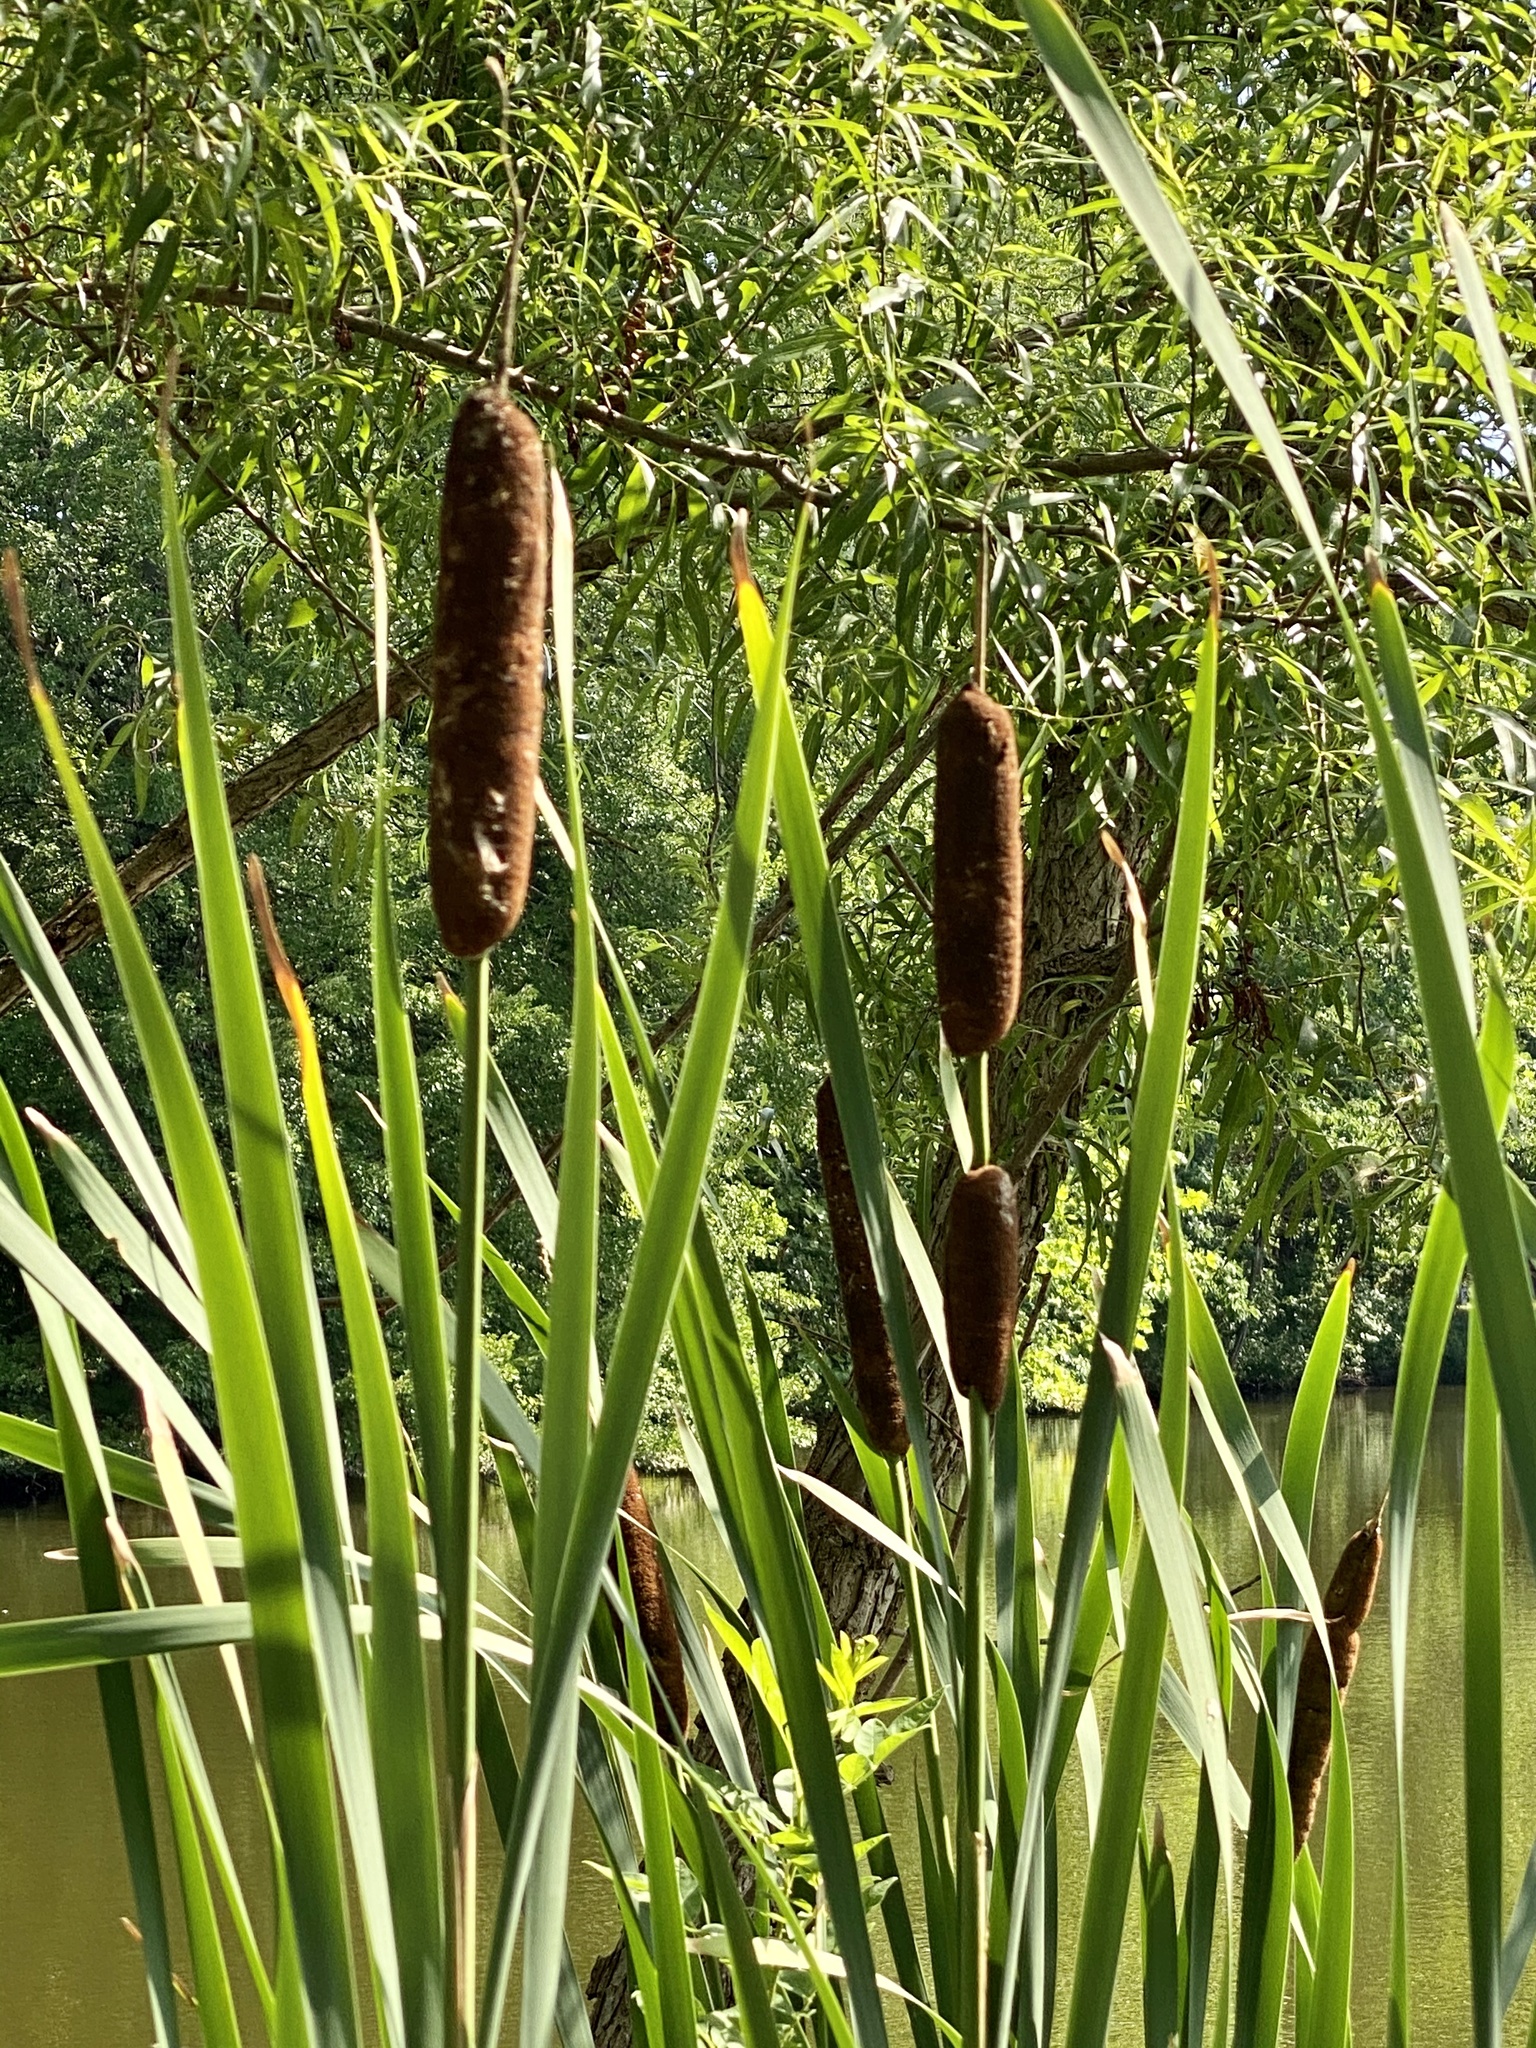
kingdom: Plantae
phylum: Tracheophyta
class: Liliopsida
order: Poales
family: Typhaceae
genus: Typha
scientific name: Typha latifolia
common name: Broadleaf cattail
